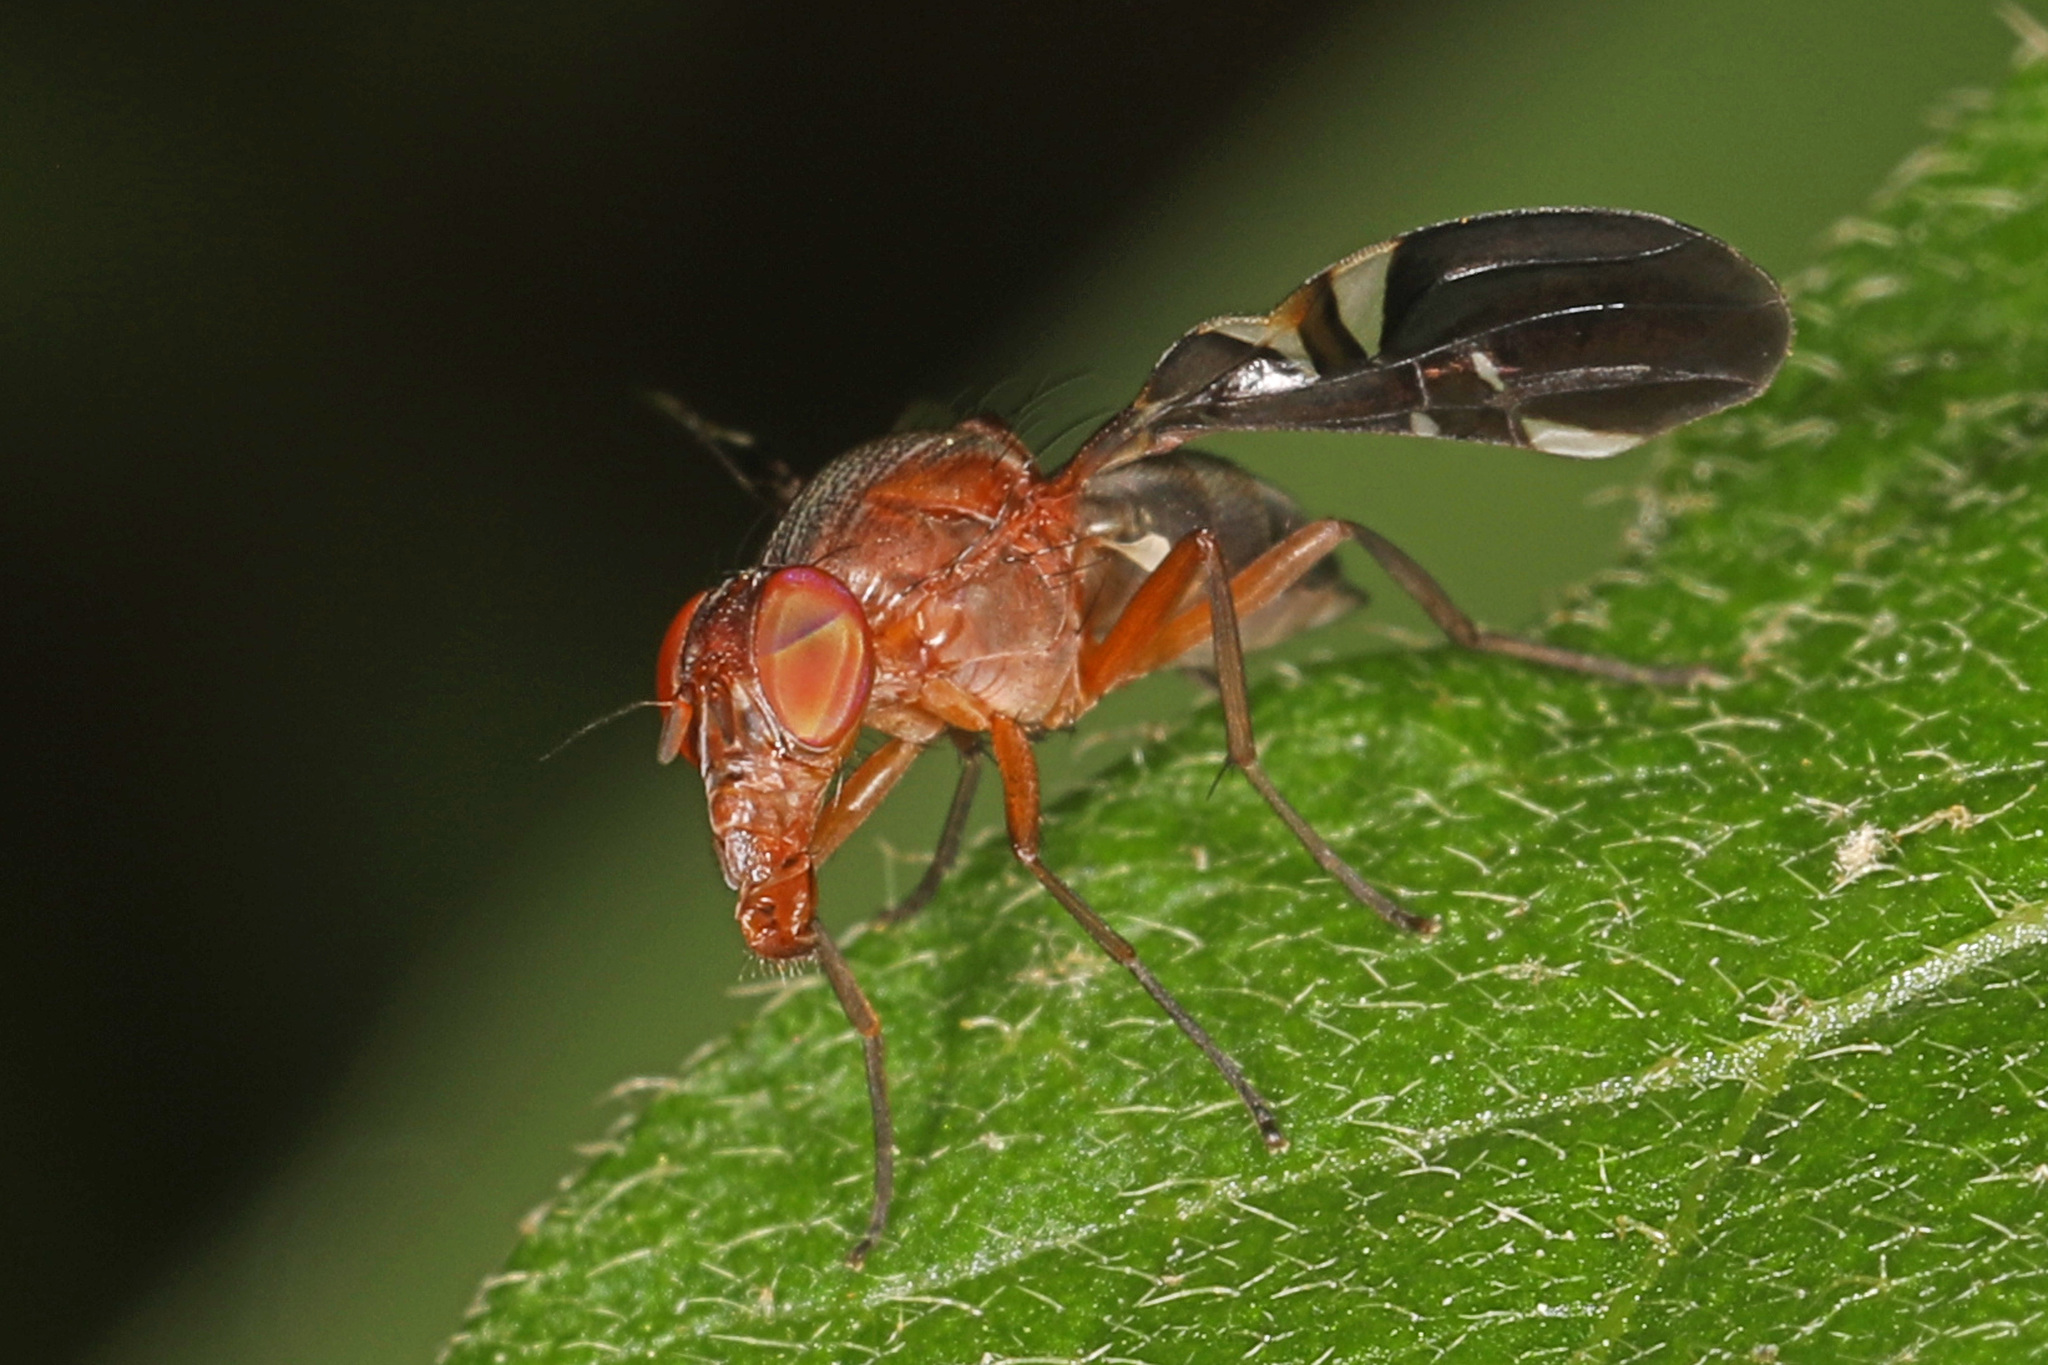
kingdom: Animalia
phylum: Arthropoda
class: Insecta
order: Diptera
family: Ulidiidae
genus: Delphinia
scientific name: Delphinia picta
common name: Common picture-winged fly
